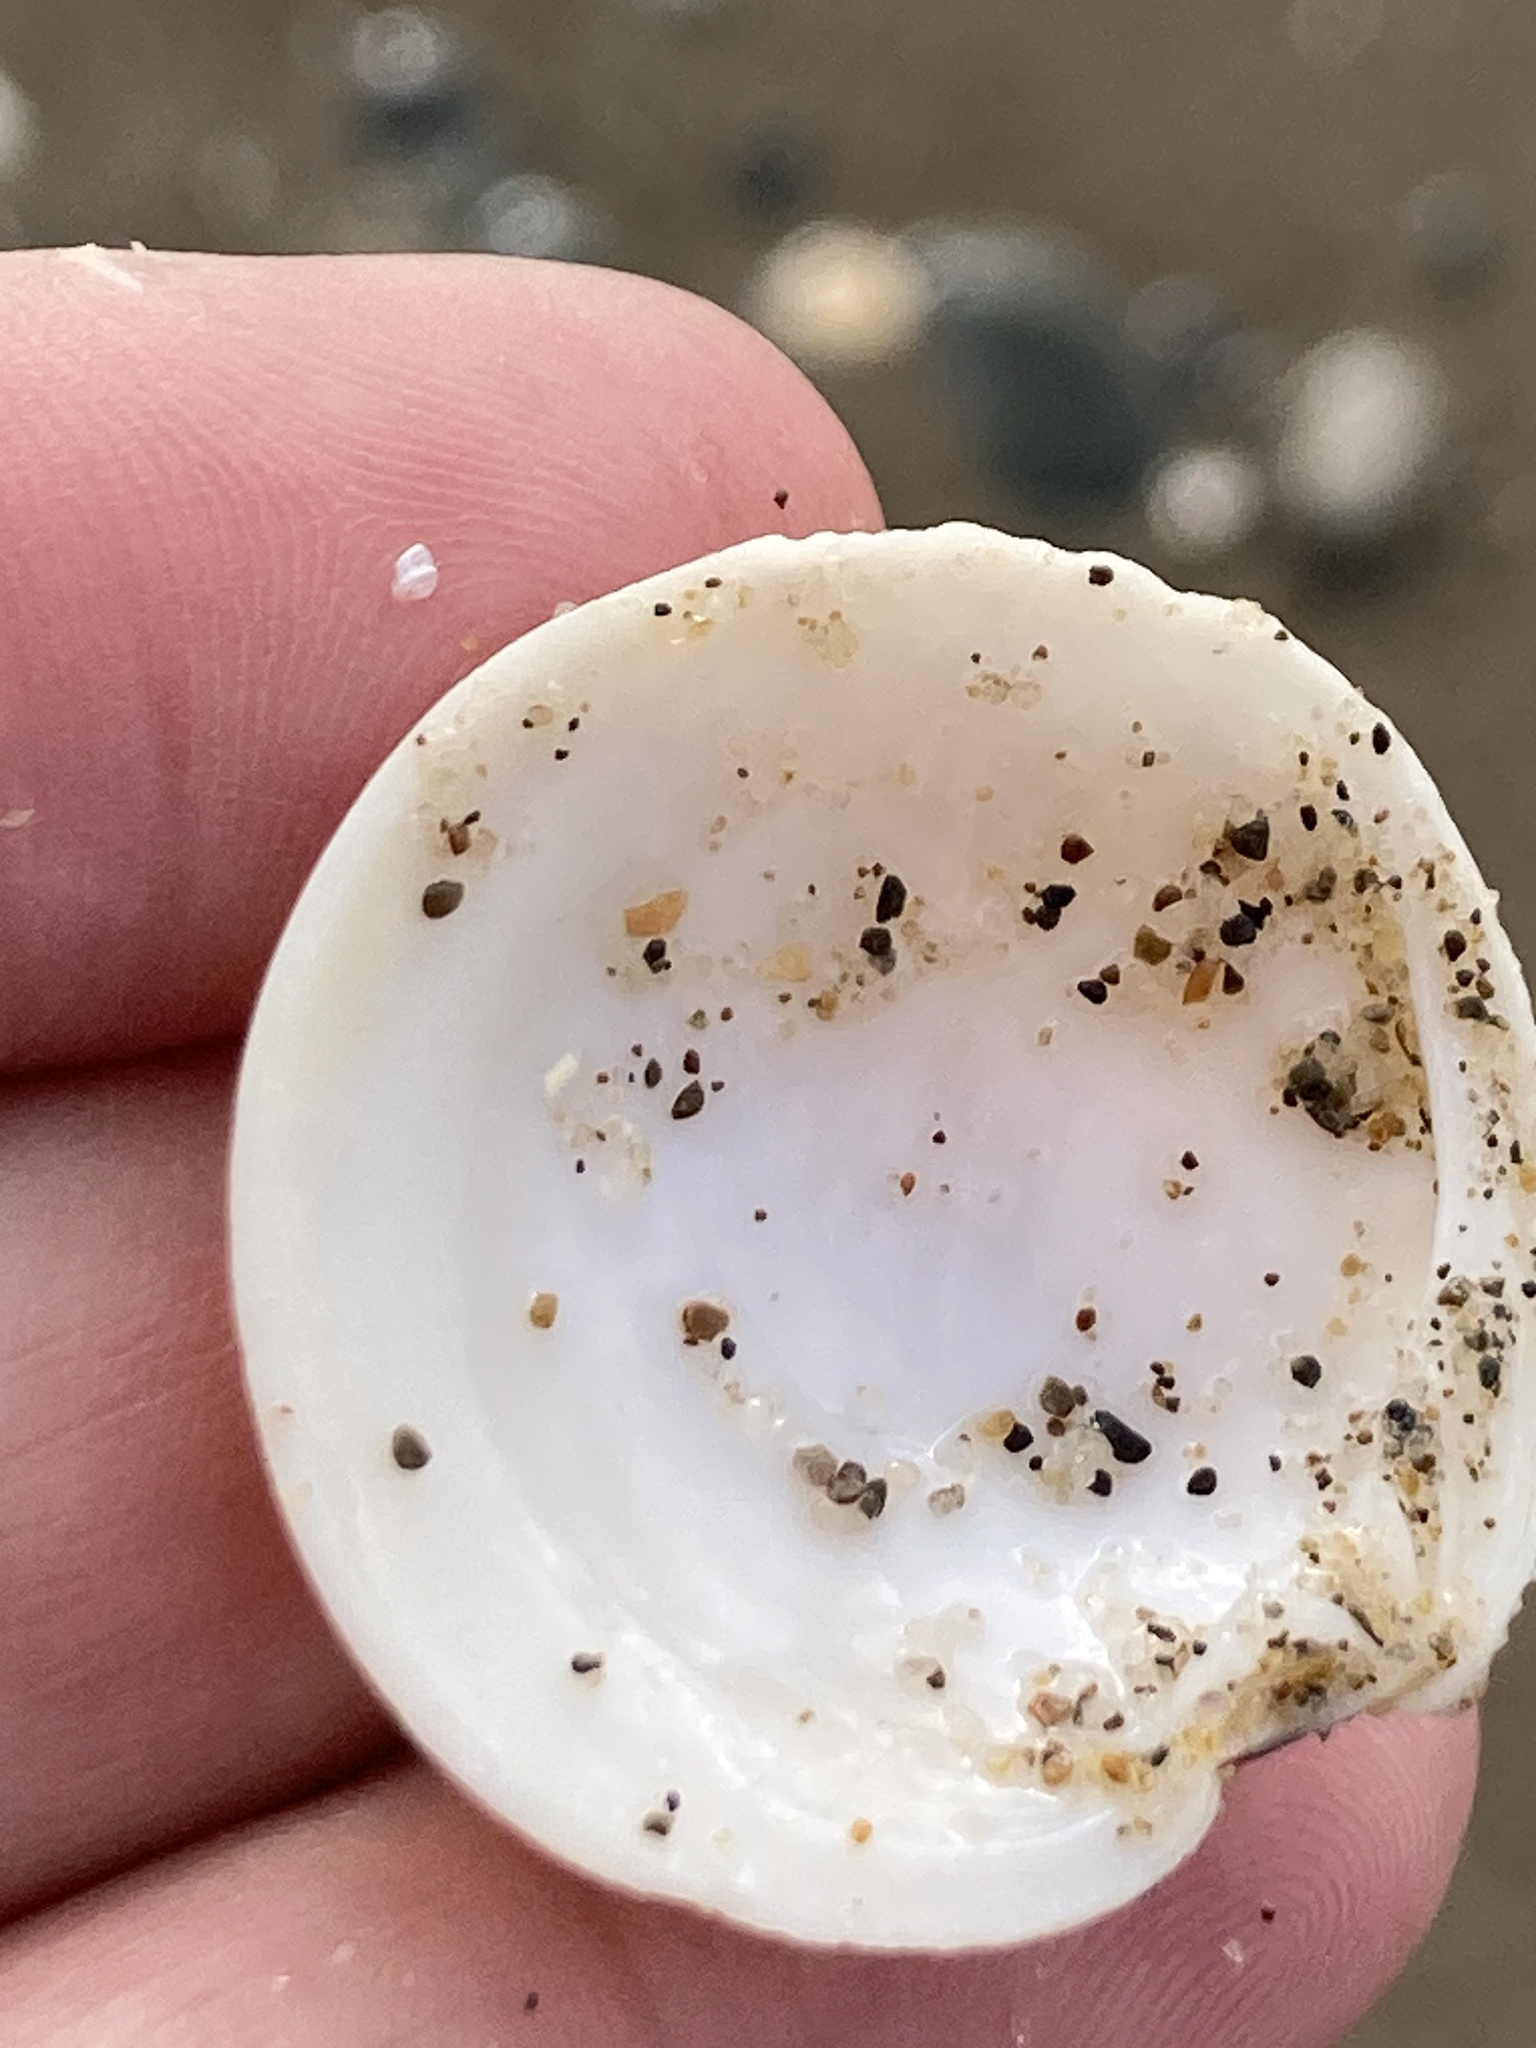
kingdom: Animalia
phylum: Mollusca
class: Bivalvia
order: Venerida
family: Veneridae
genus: Dosinia
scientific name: Dosinia exoleta
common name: Rayed artemis
